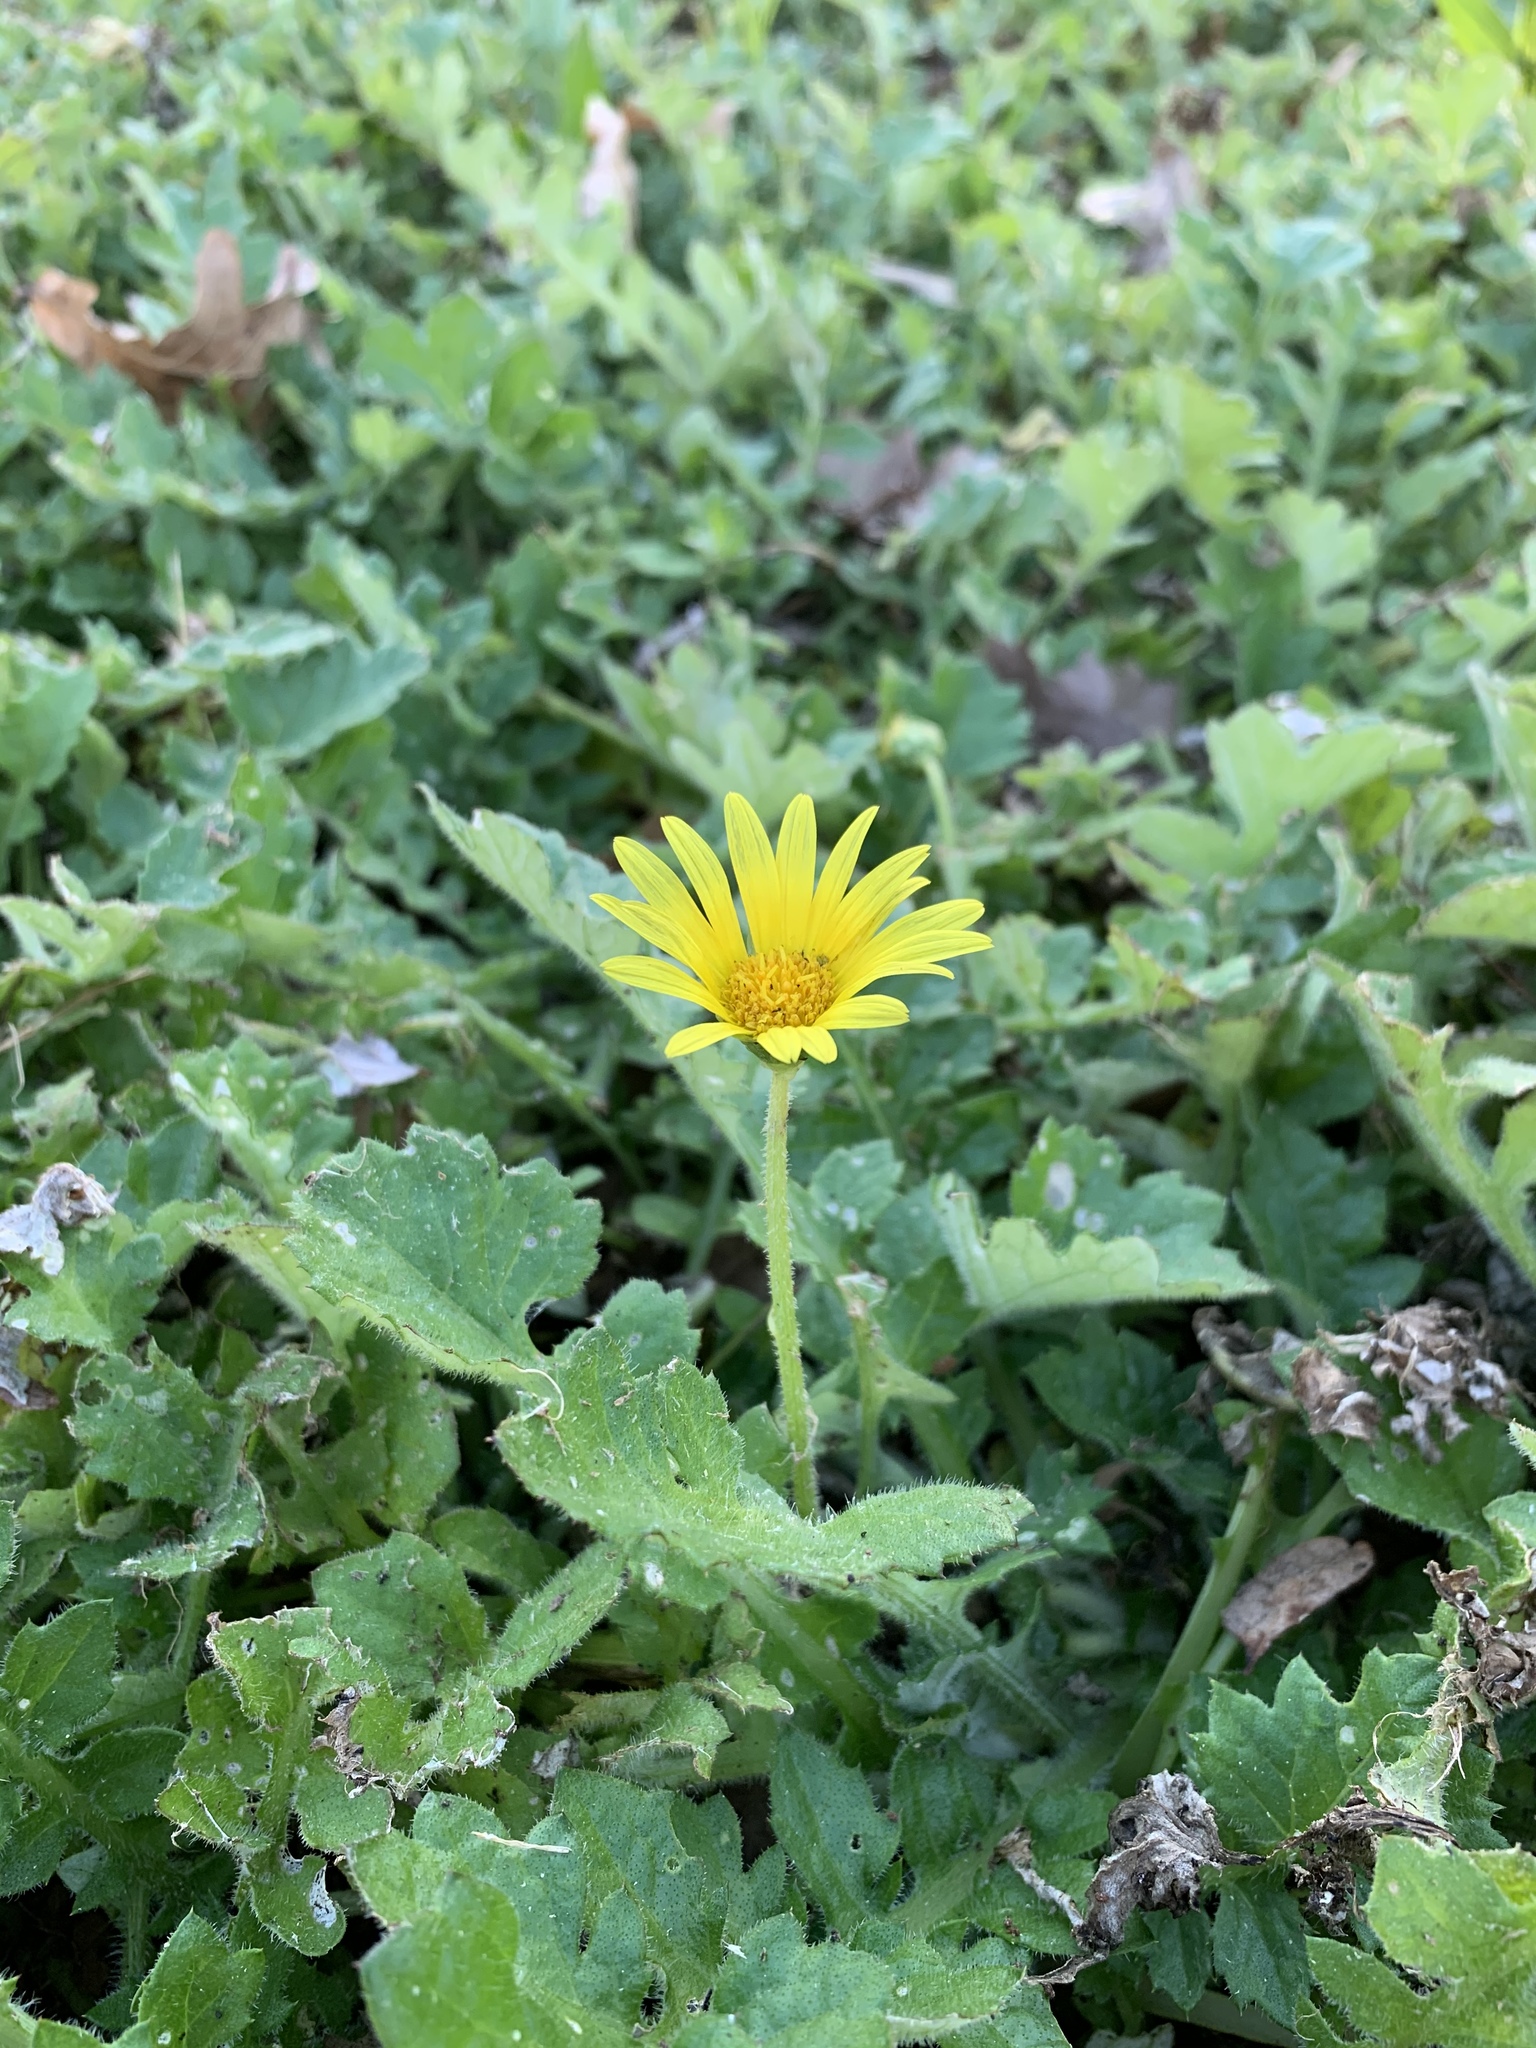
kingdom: Plantae
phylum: Tracheophyta
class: Magnoliopsida
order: Asterales
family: Asteraceae
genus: Arctotheca
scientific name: Arctotheca prostrata
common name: Capeweed
